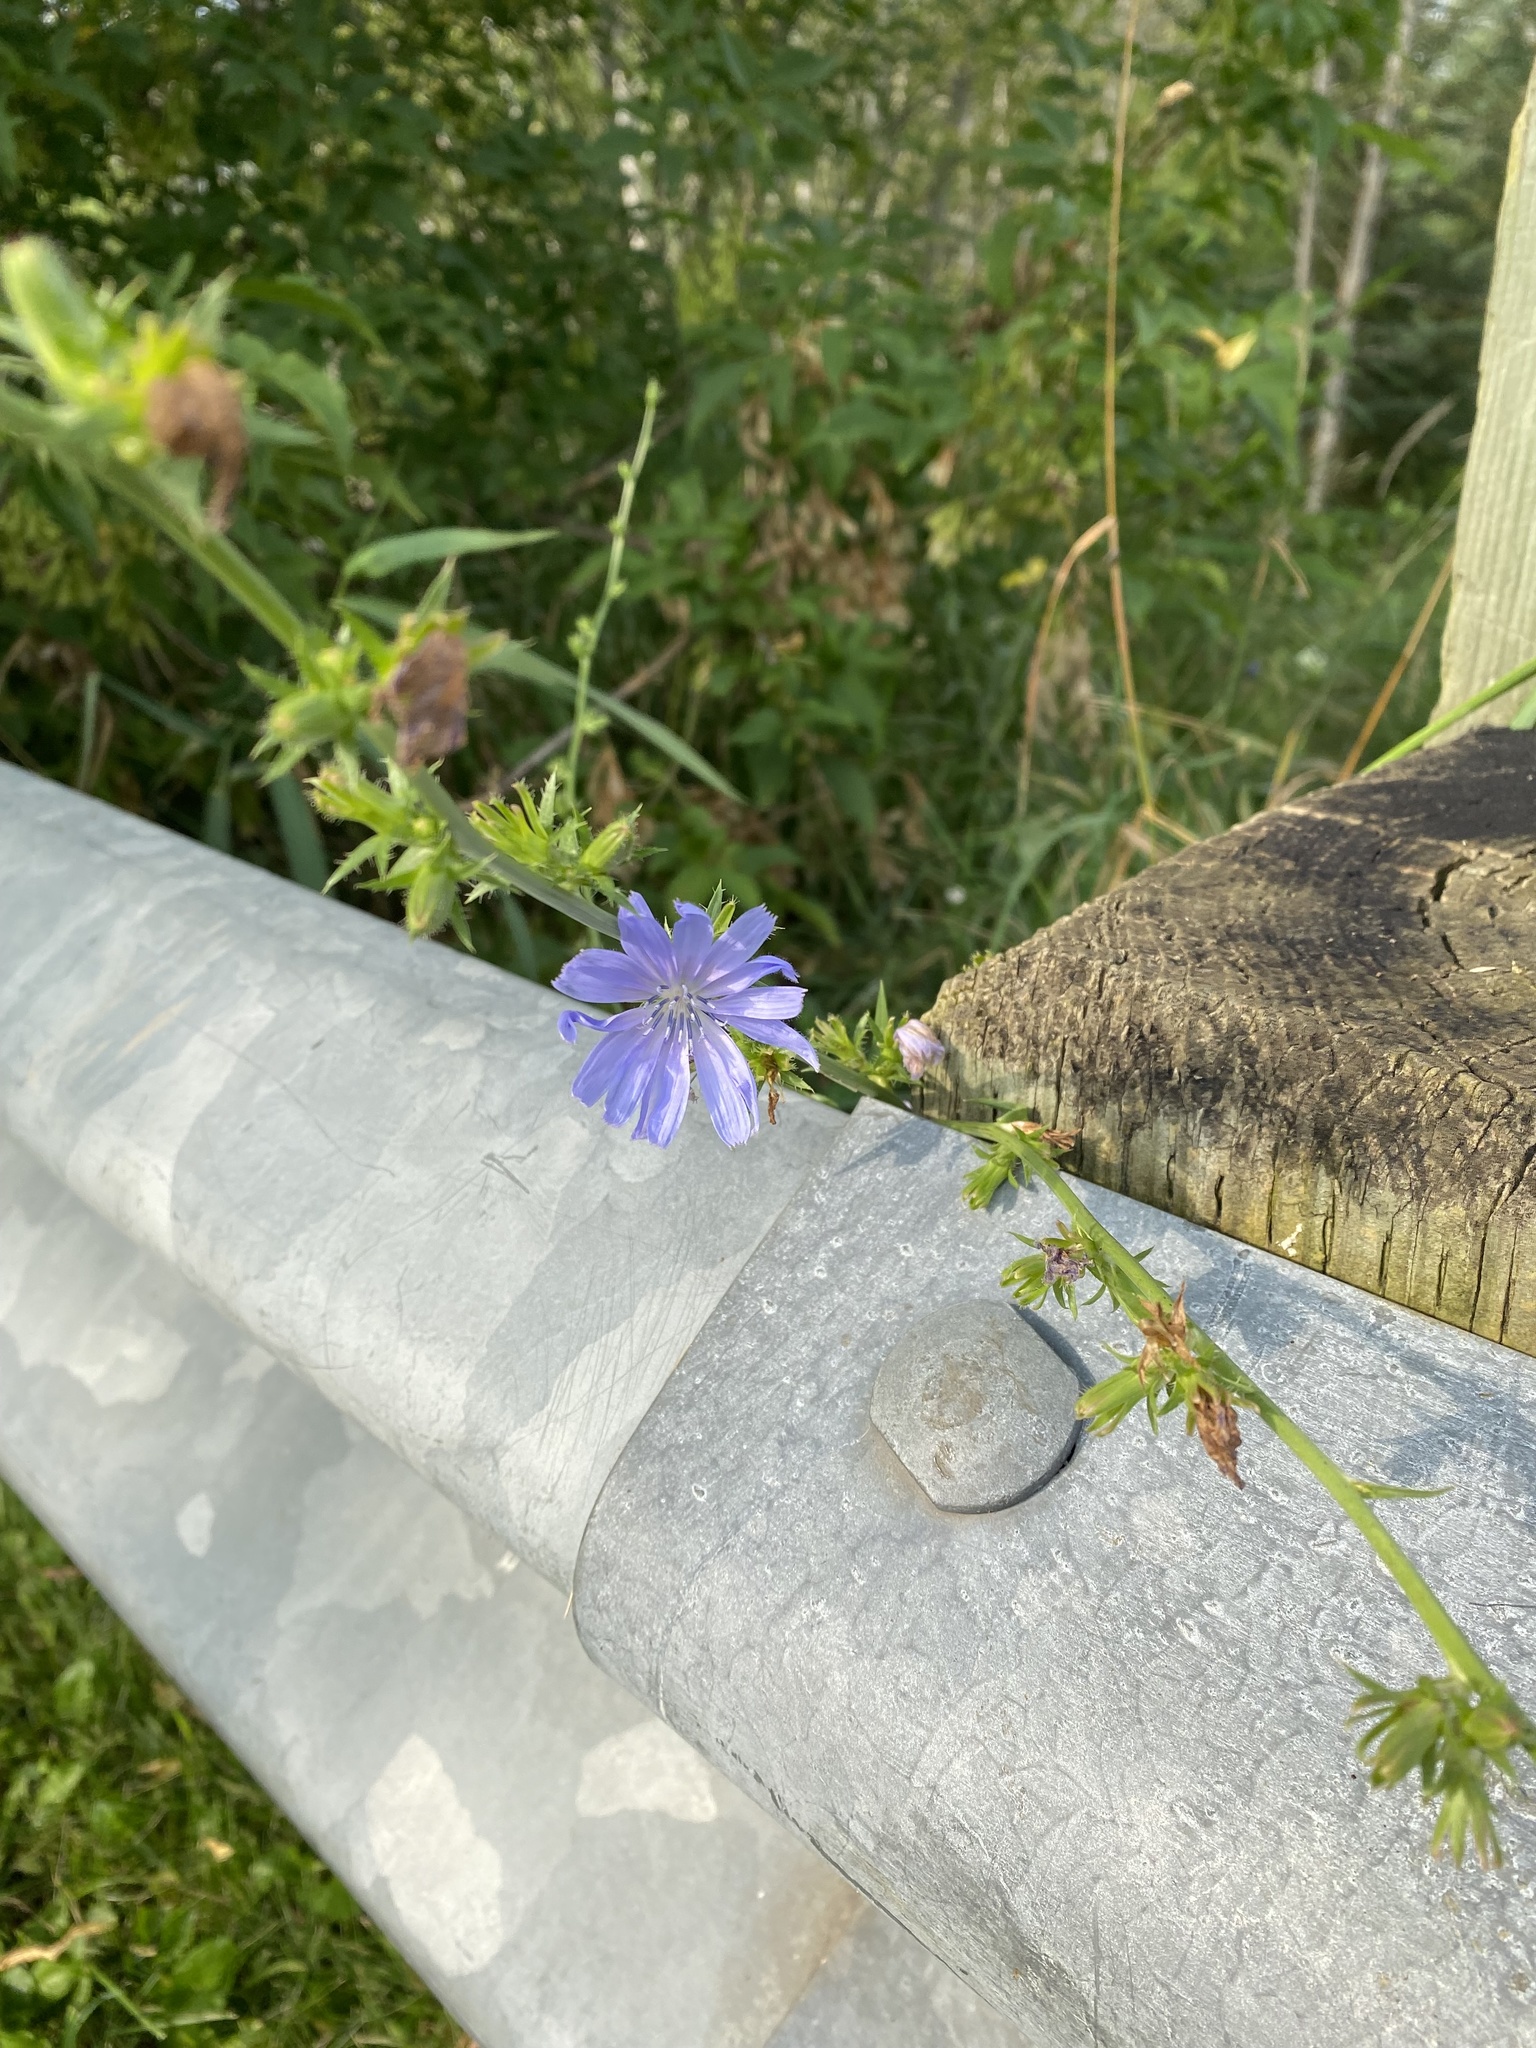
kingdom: Plantae
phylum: Tracheophyta
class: Magnoliopsida
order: Asterales
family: Asteraceae
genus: Cichorium
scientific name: Cichorium intybus
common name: Chicory
